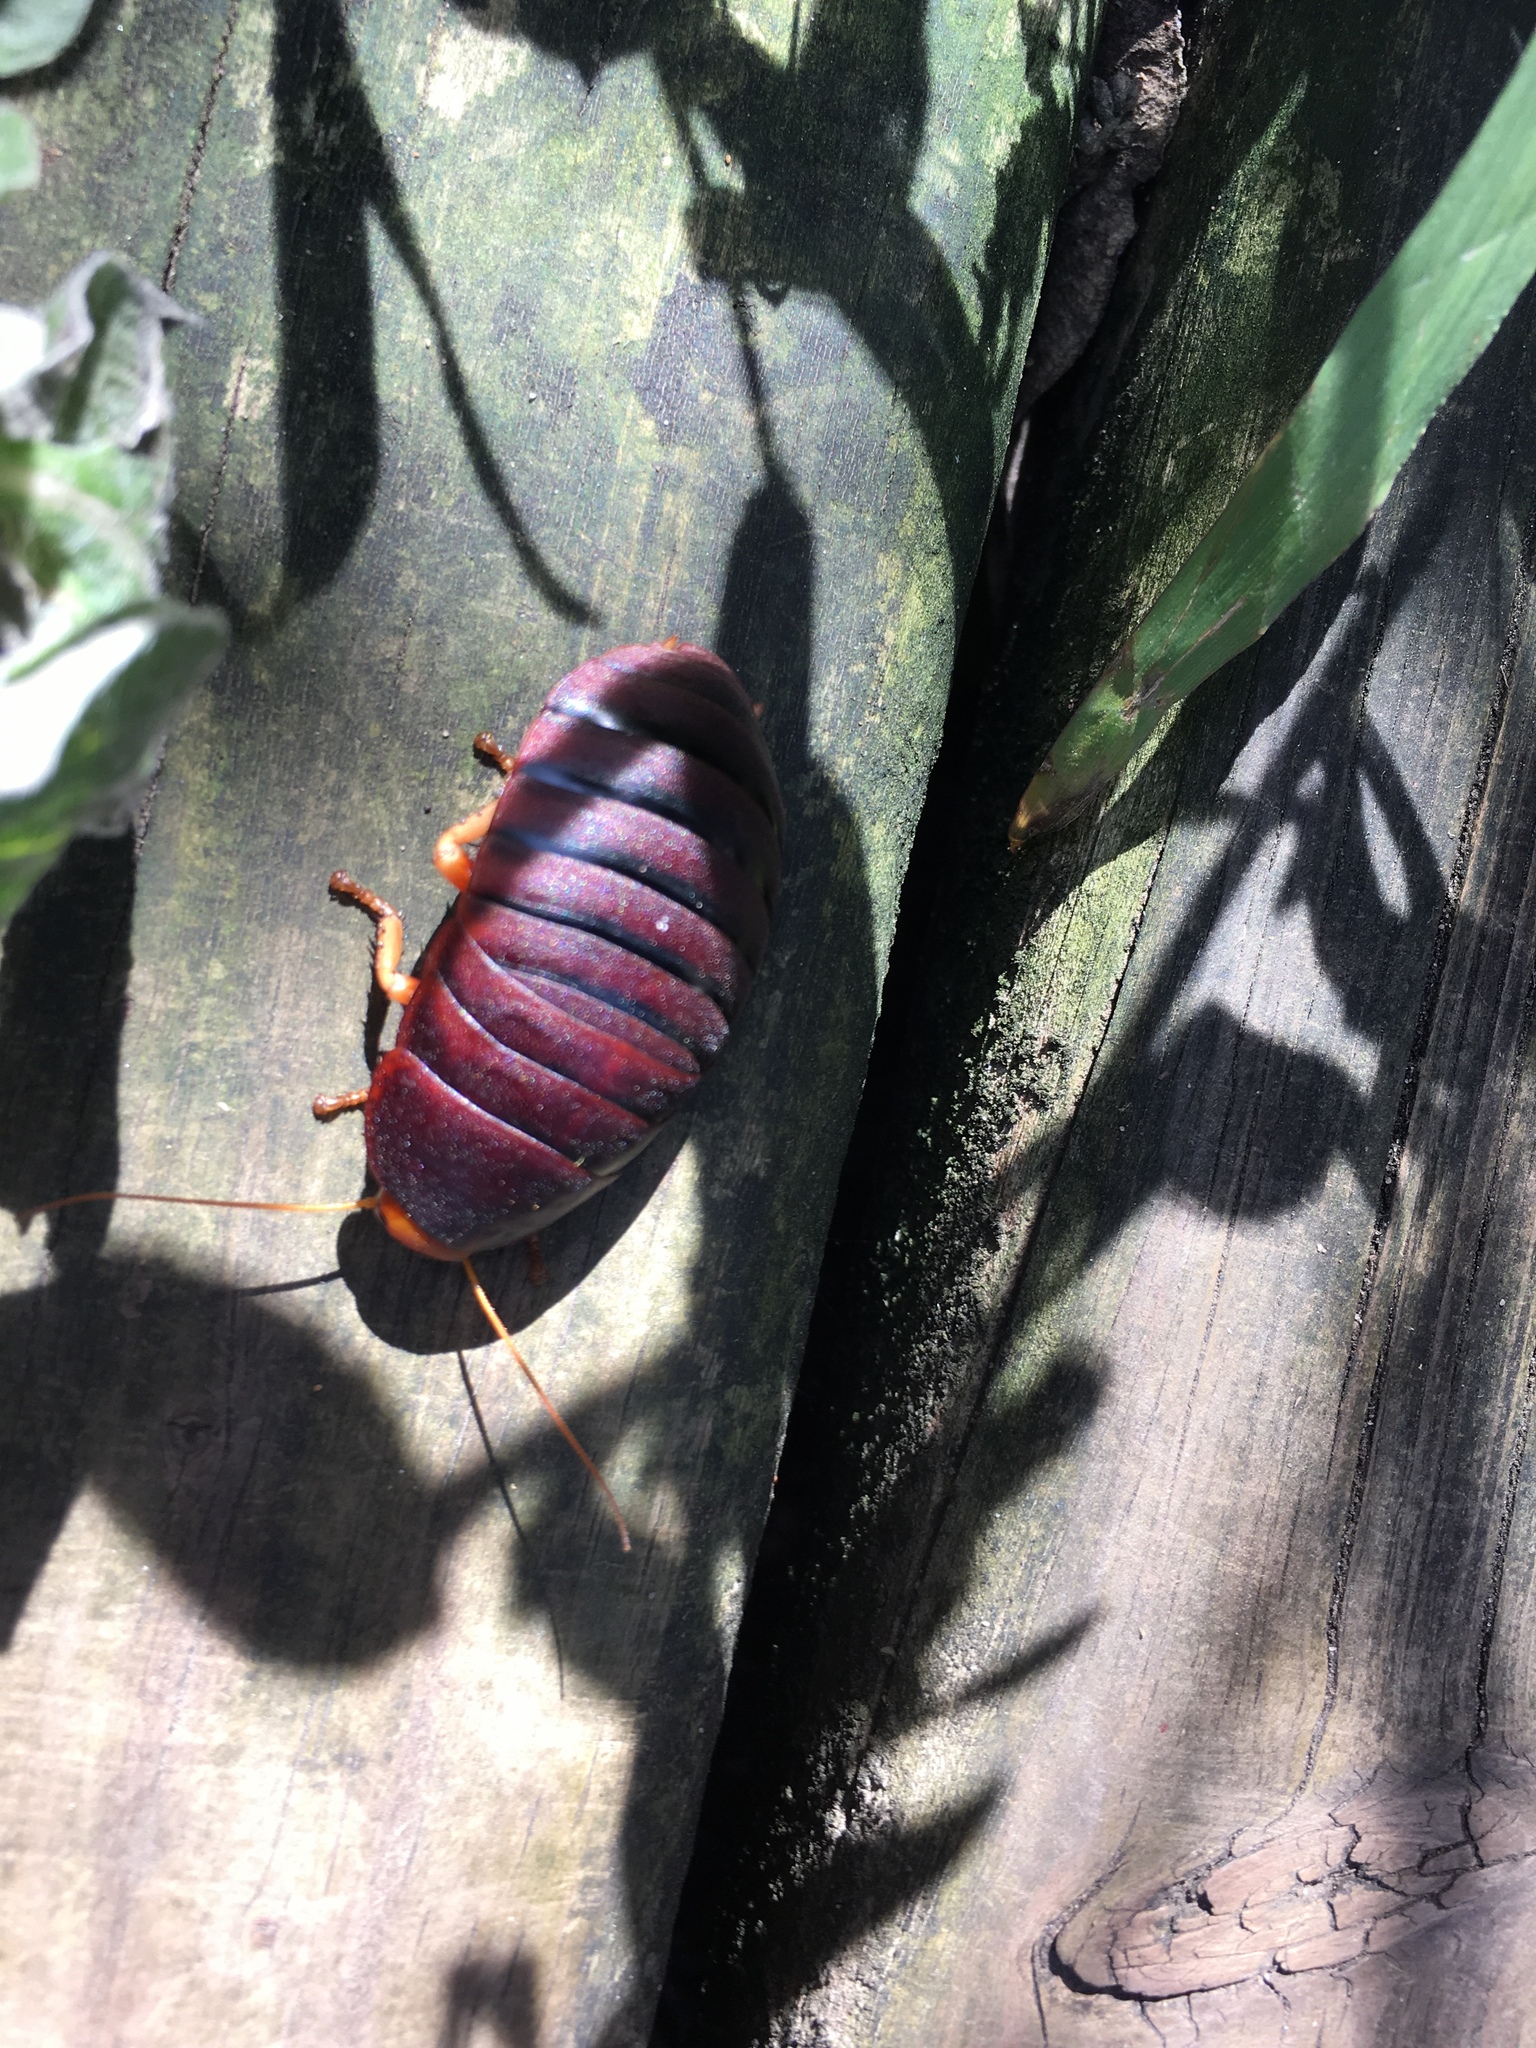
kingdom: Animalia
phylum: Arthropoda
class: Insecta
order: Blattodea
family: Blaberidae
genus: Aptera
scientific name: Aptera fusca
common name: Cape mountain cockroach
